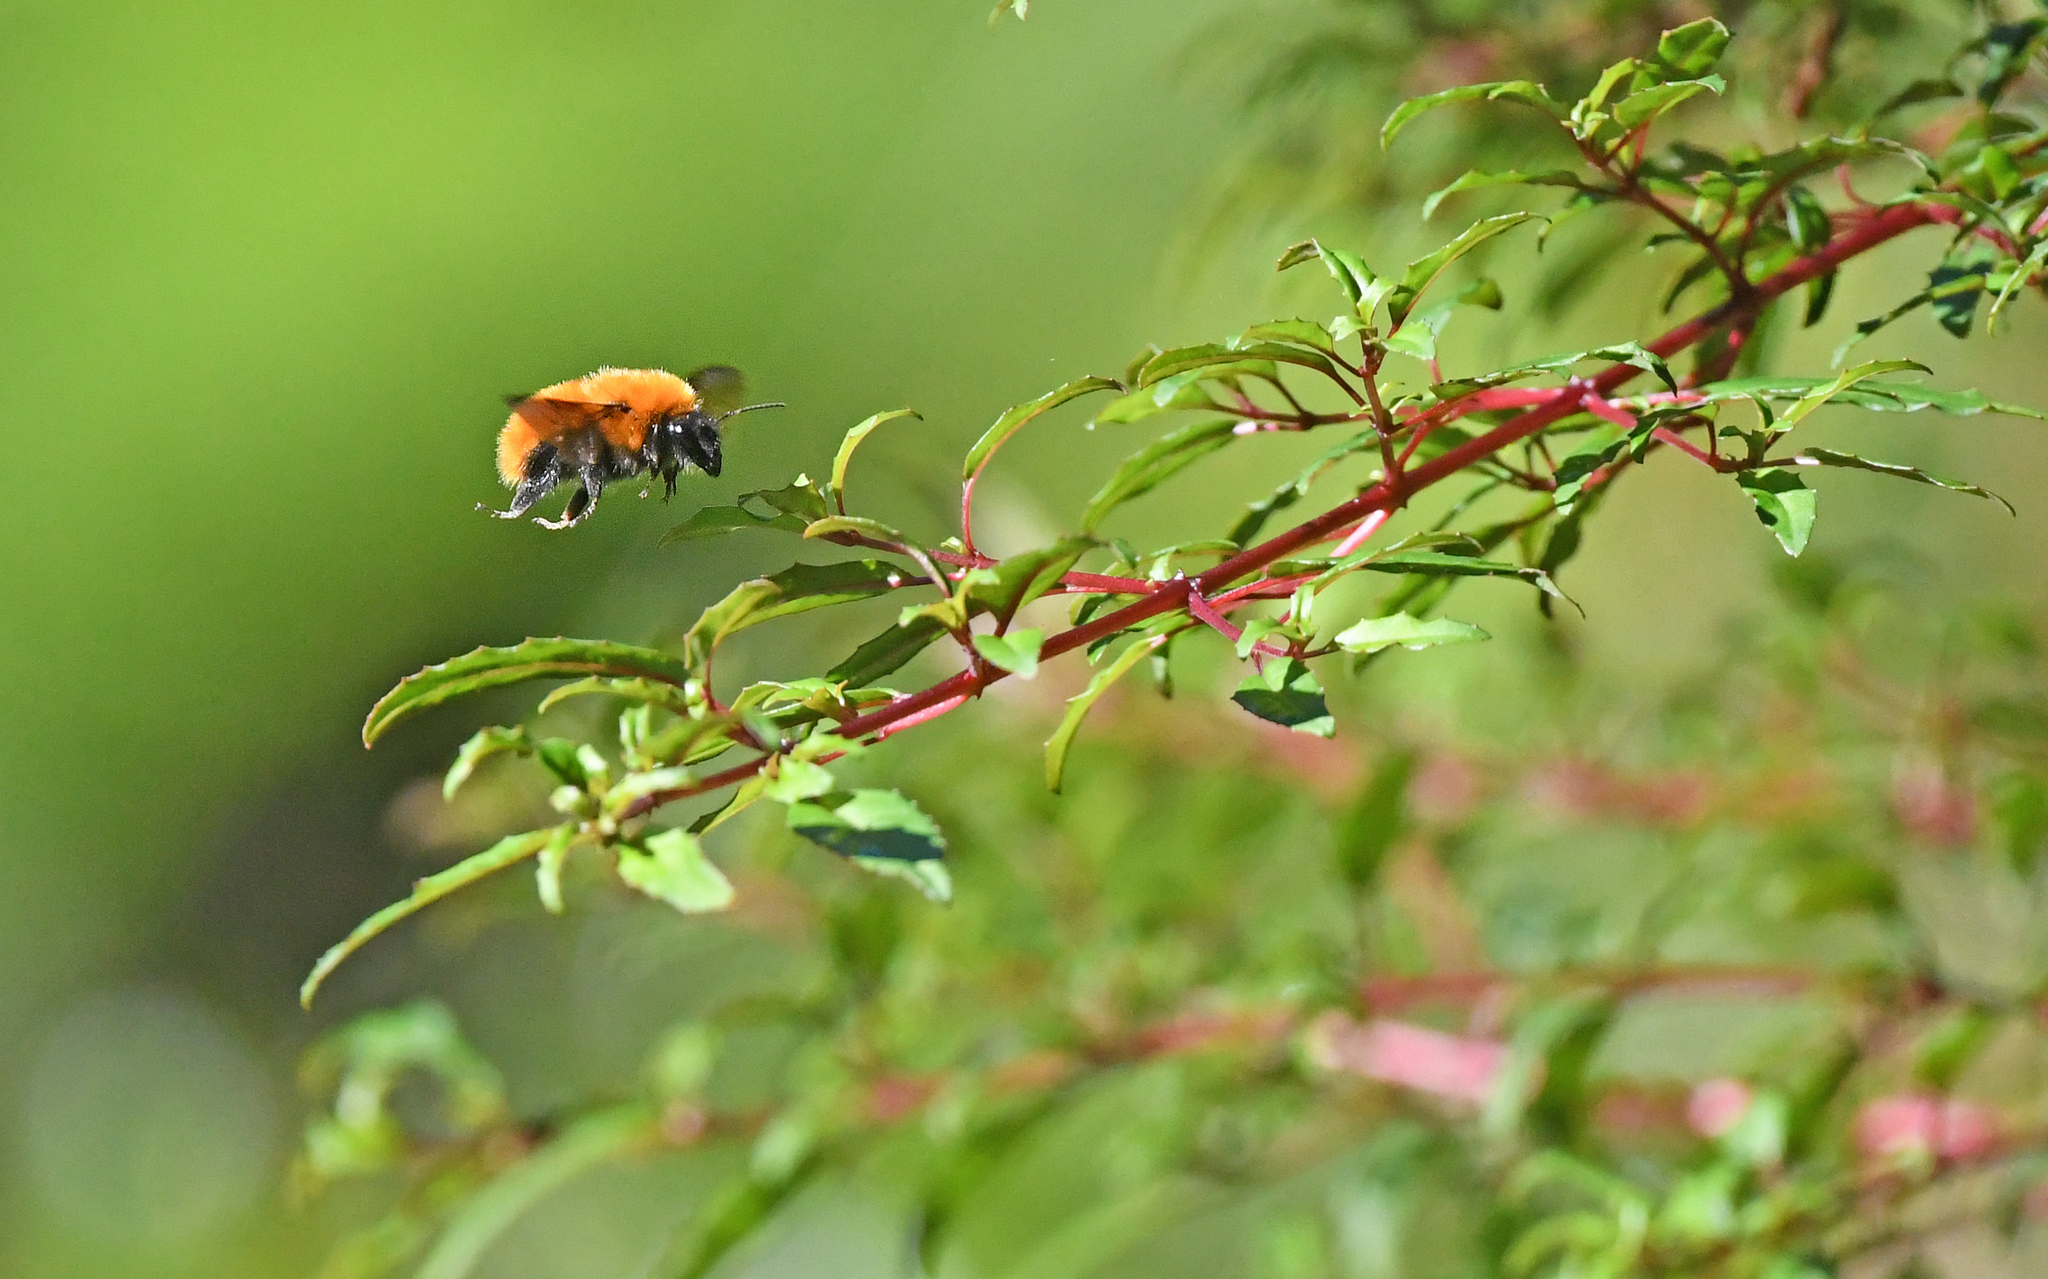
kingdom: Animalia
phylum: Arthropoda
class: Insecta
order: Hymenoptera
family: Apidae
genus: Bombus
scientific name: Bombus dahlbomii
